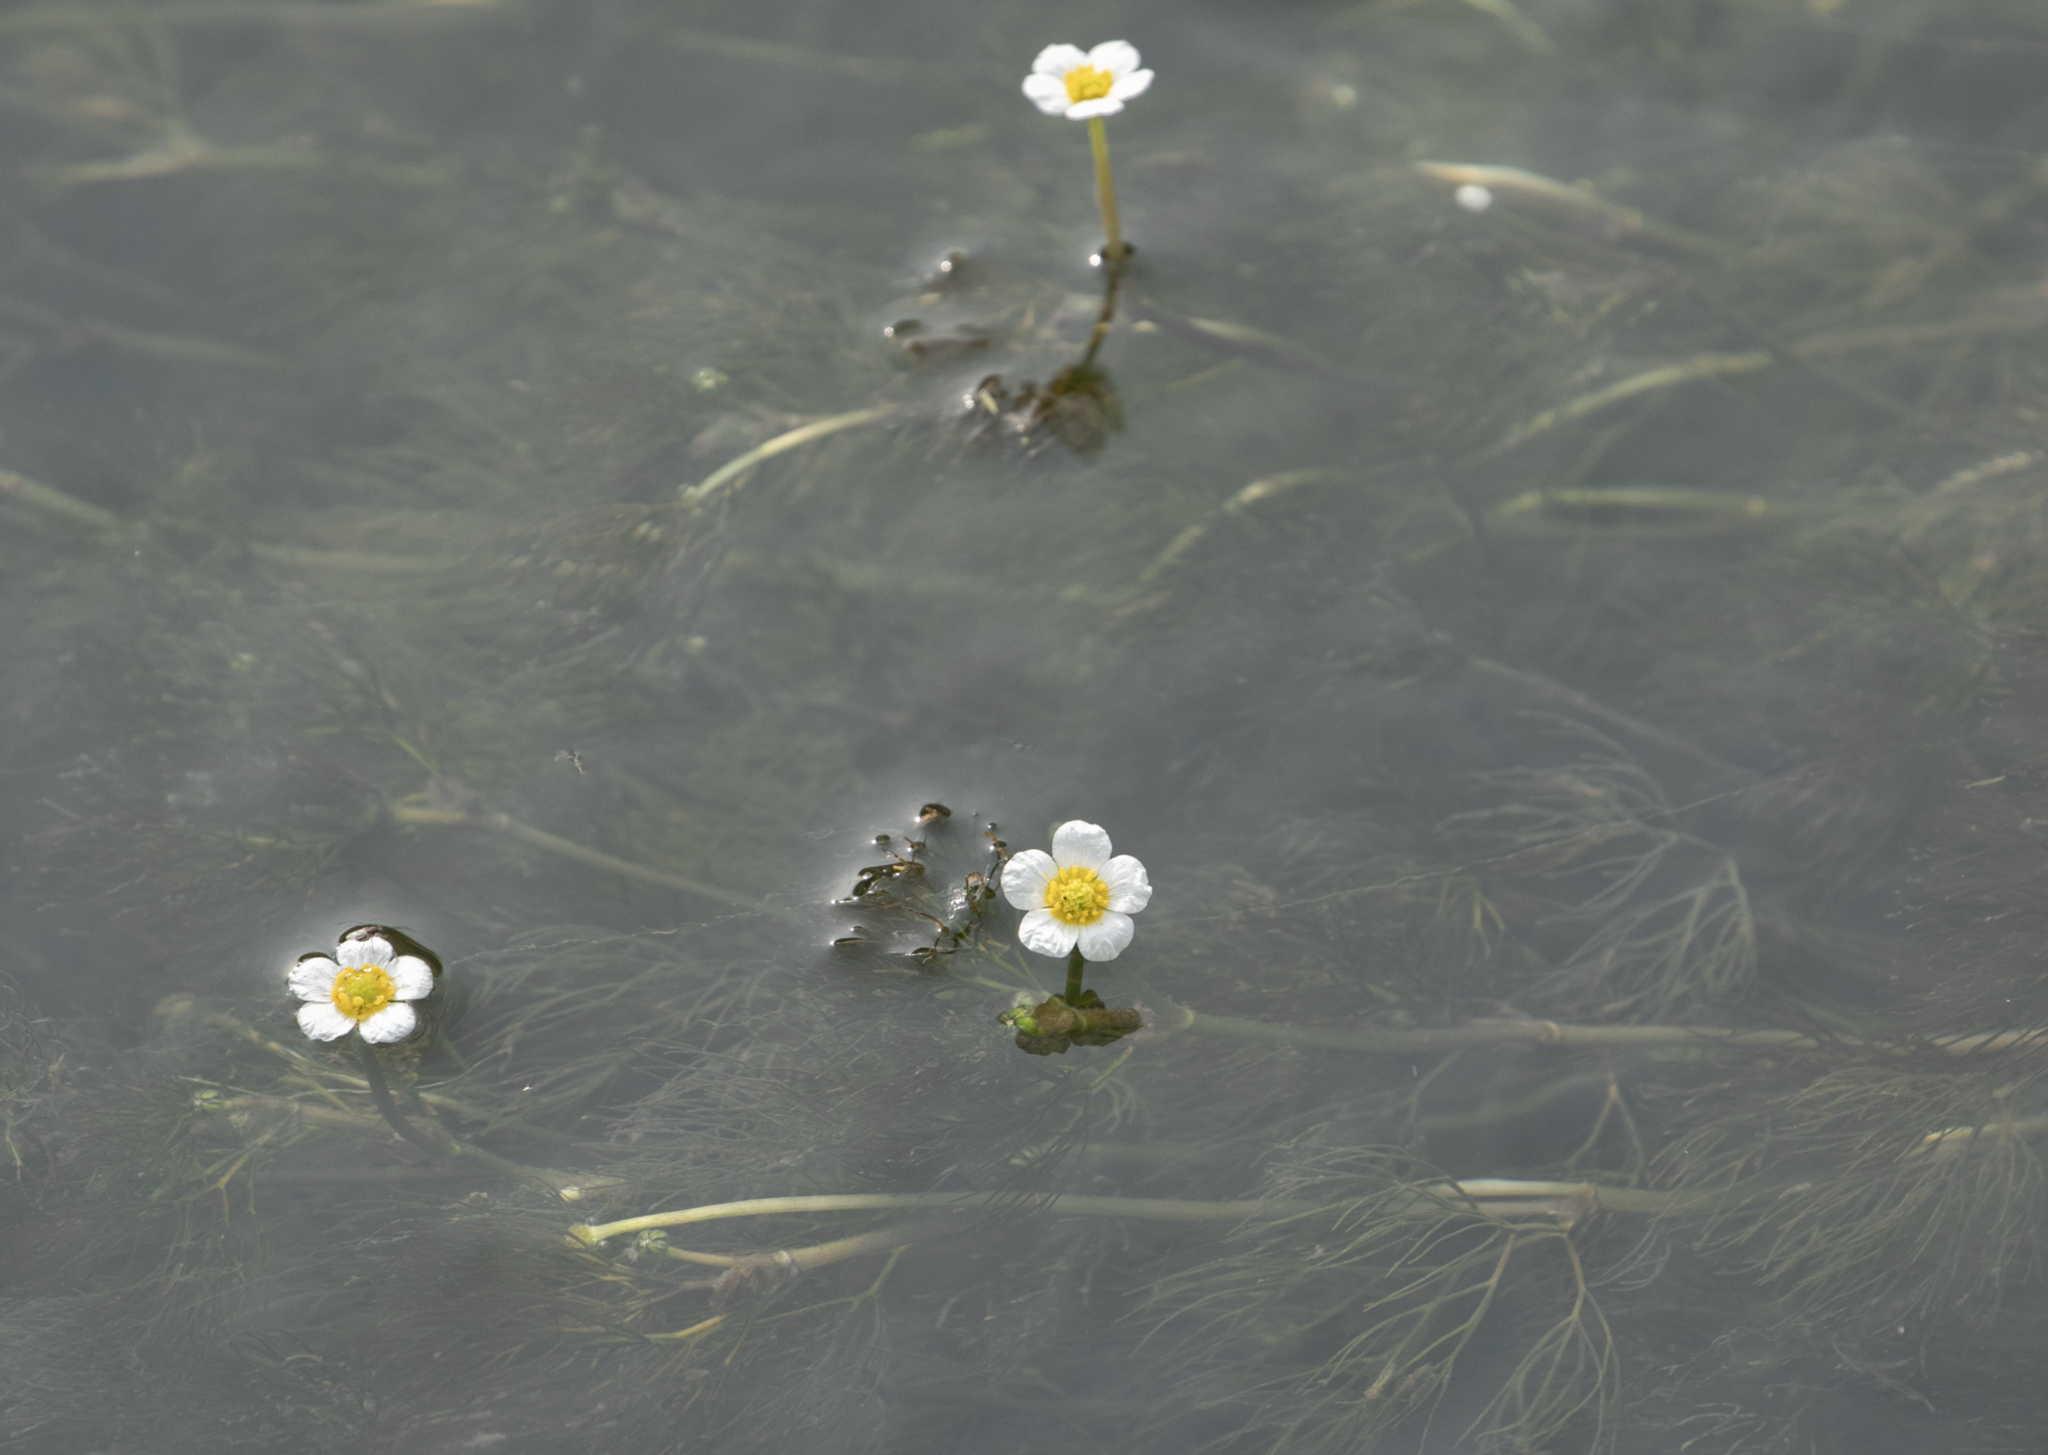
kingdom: Plantae
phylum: Tracheophyta
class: Magnoliopsida
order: Ranunculales
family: Ranunculaceae
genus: Ranunculus
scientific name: Ranunculus trichophyllus
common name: Thread-leaved water-crowfoot
